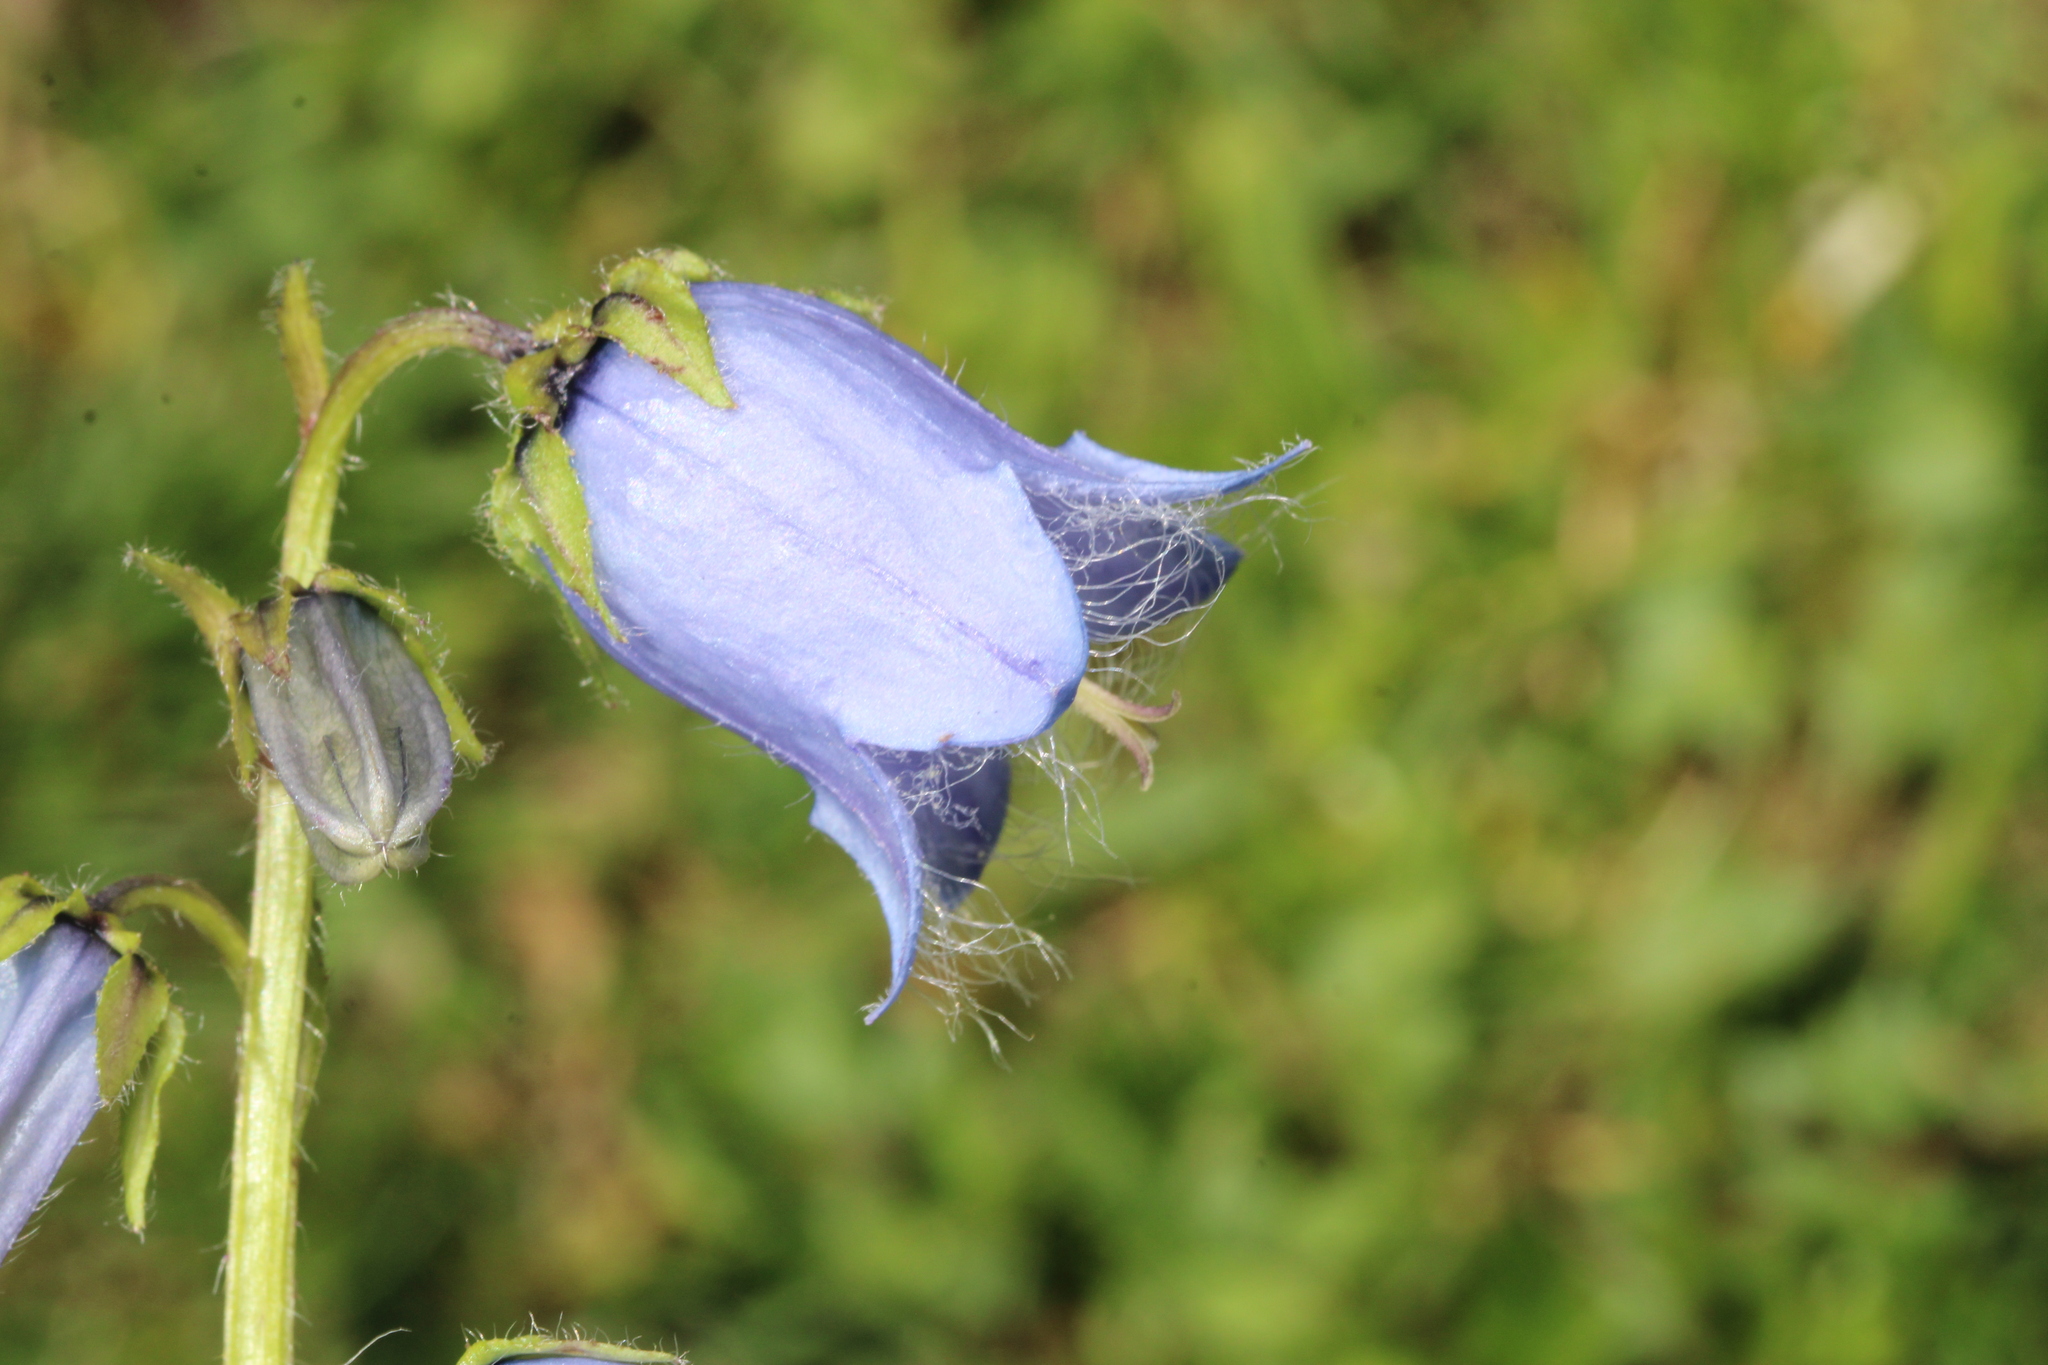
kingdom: Plantae
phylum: Tracheophyta
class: Magnoliopsida
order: Asterales
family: Campanulaceae
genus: Campanula
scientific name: Campanula barbata
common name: Bearded bellflower
